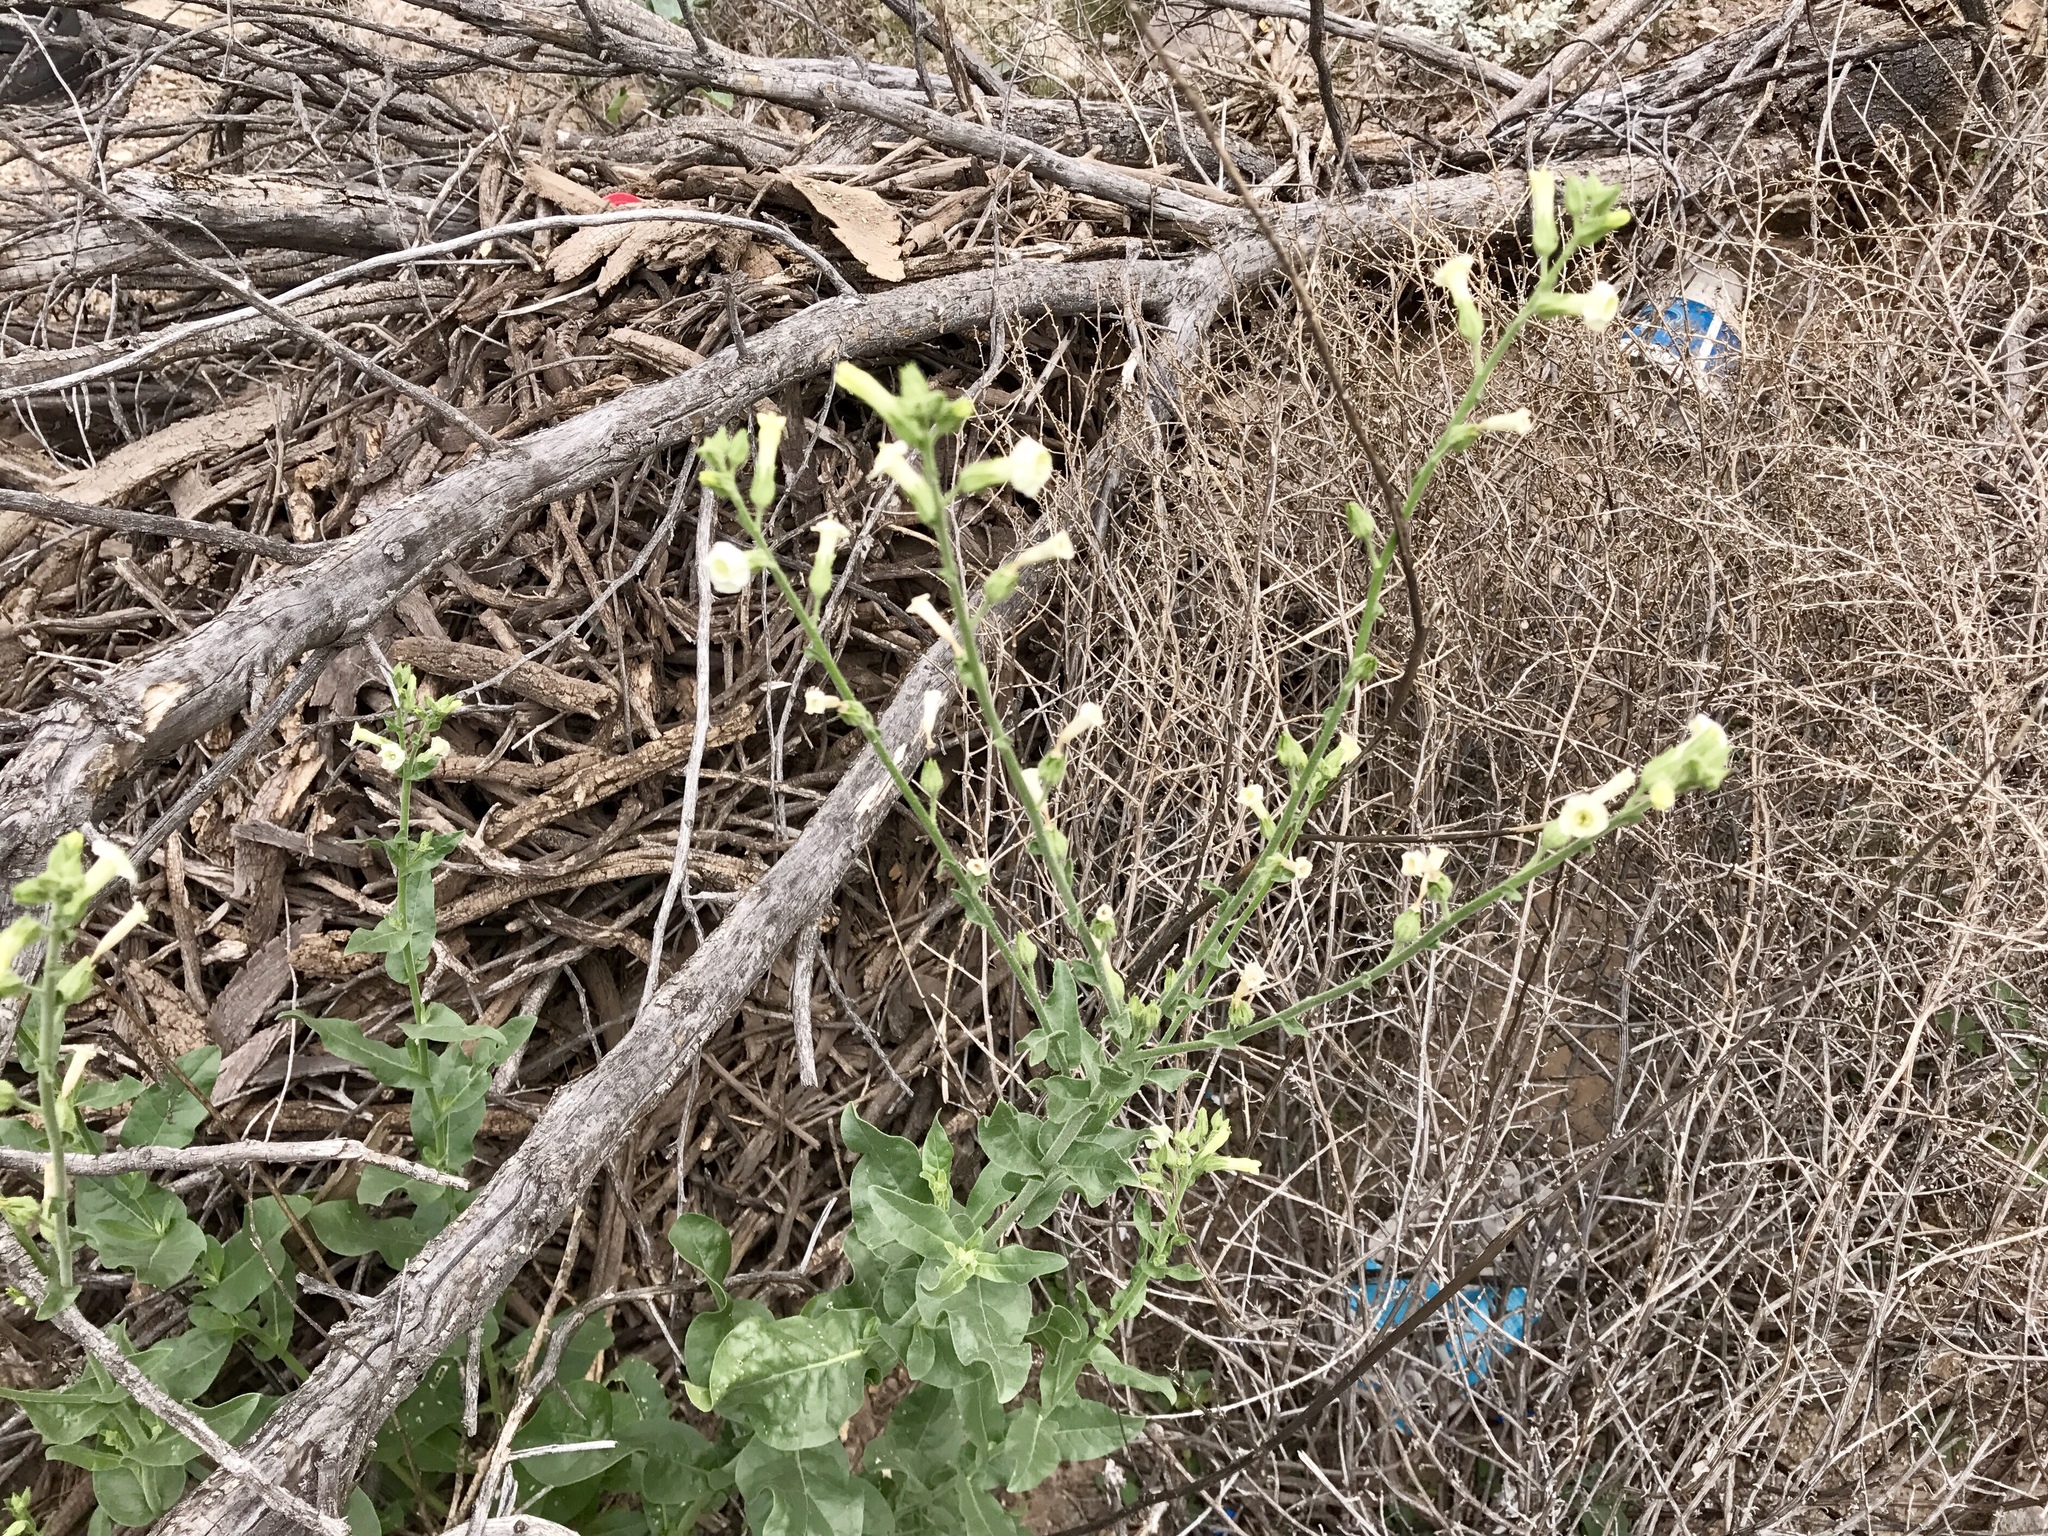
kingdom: Plantae
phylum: Tracheophyta
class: Magnoliopsida
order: Solanales
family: Solanaceae
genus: Nicotiana
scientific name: Nicotiana obtusifolia
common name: Desert tobacco
